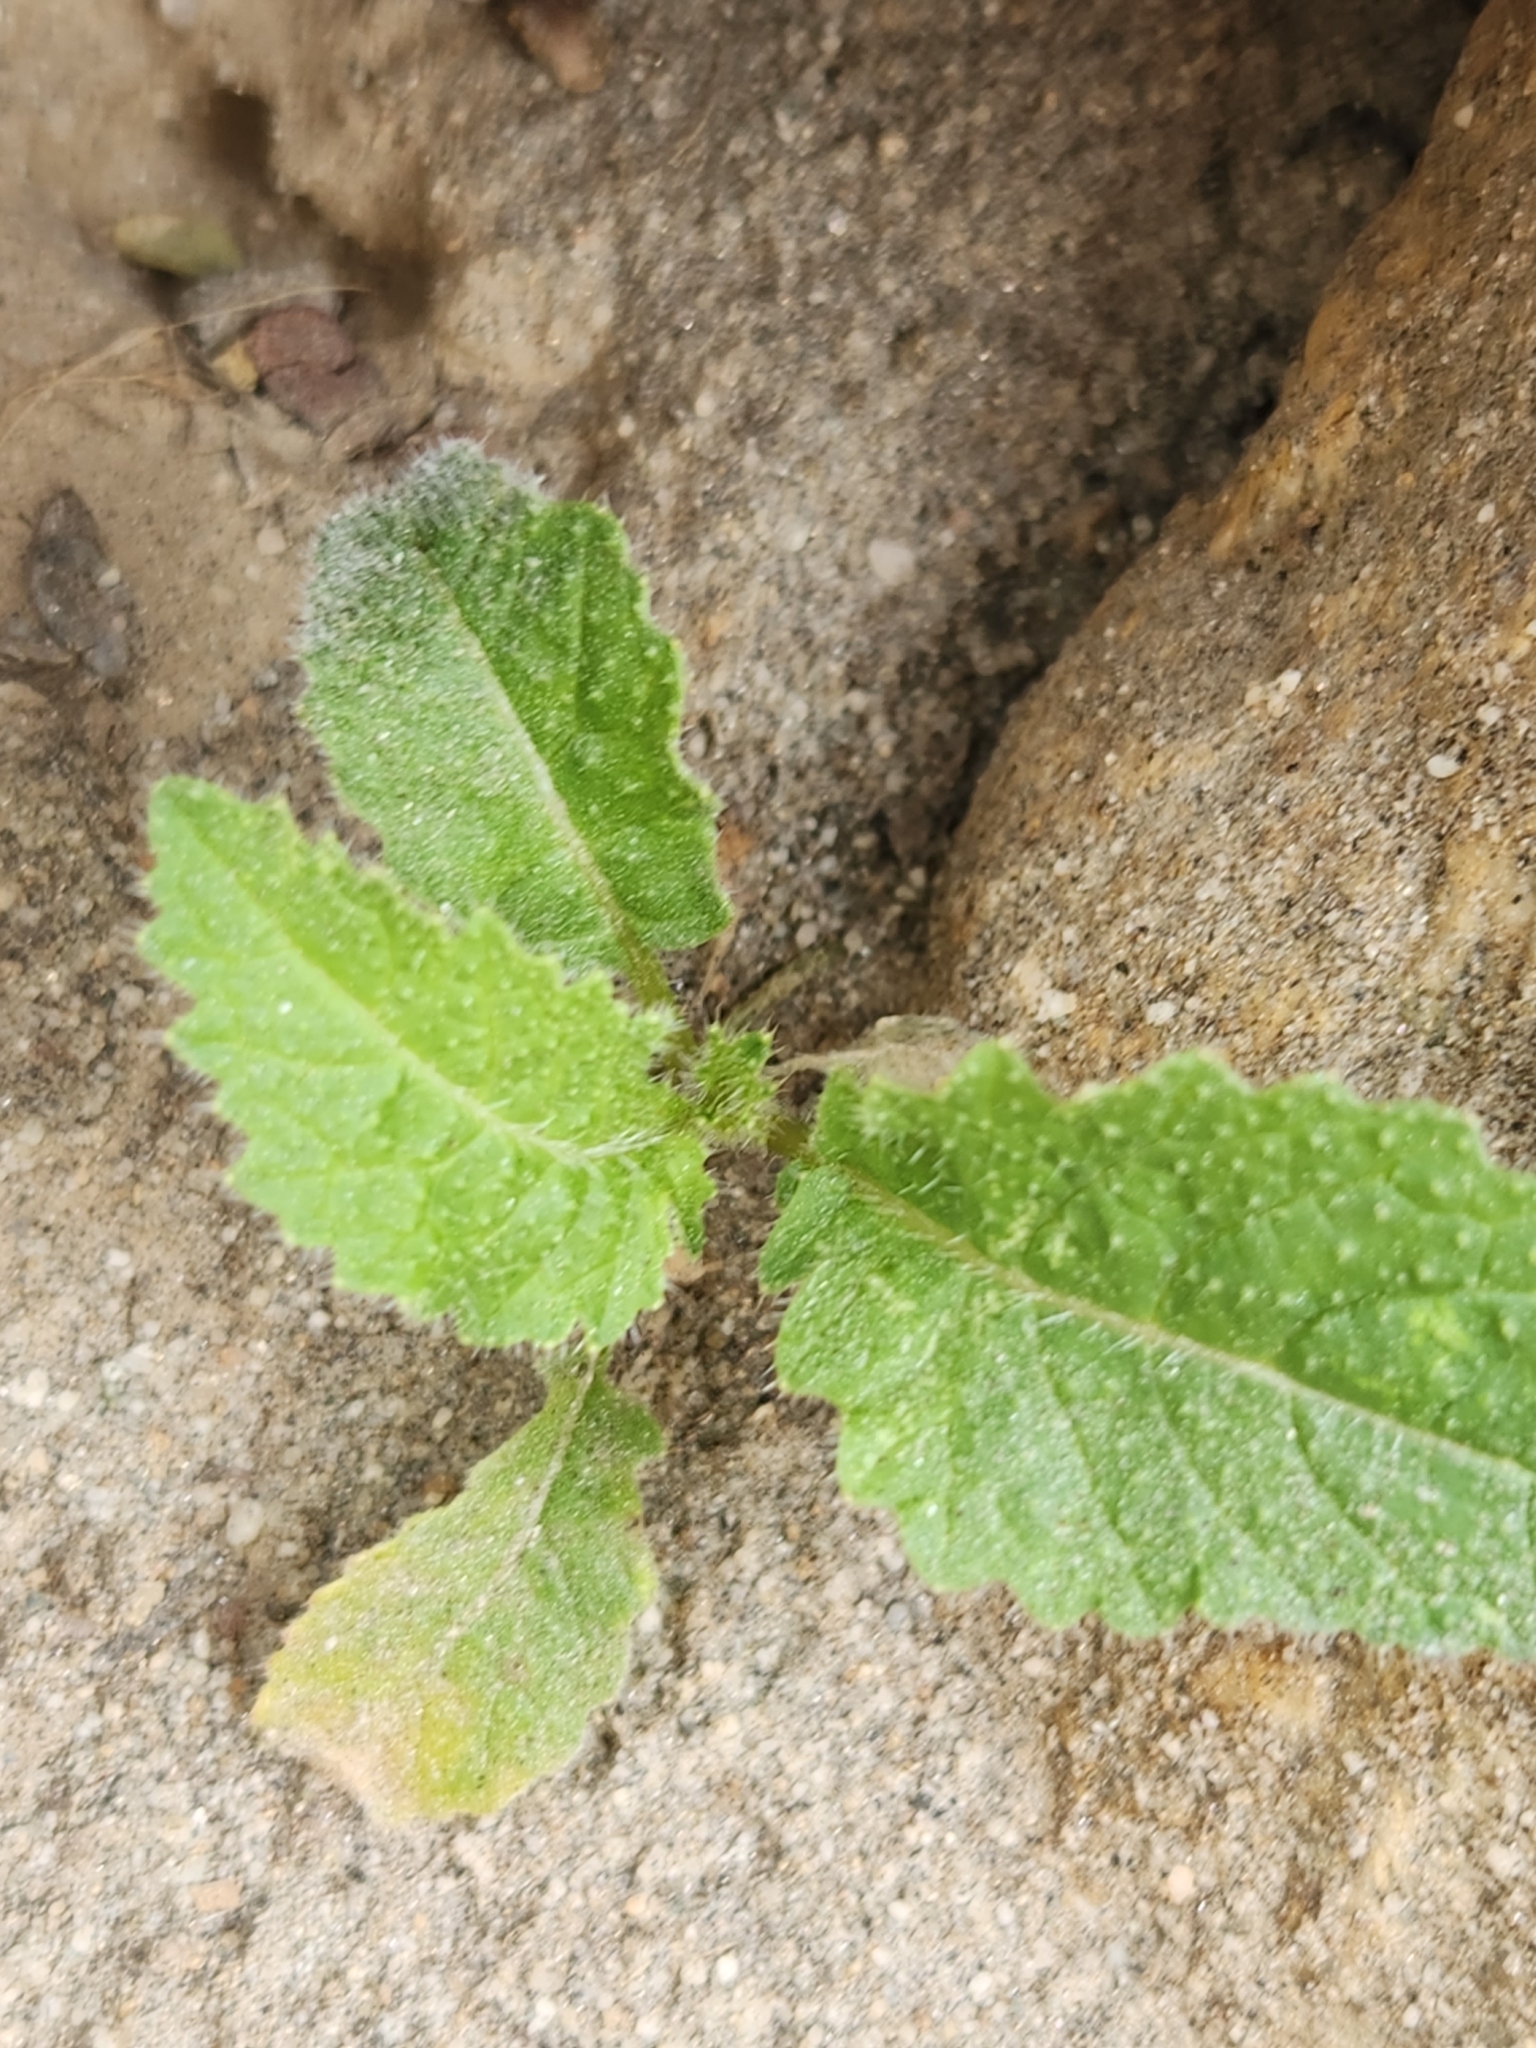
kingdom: Plantae
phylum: Tracheophyta
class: Magnoliopsida
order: Brassicales
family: Brassicaceae
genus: Brassica
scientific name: Brassica tournefortii
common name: Pale cabbage
